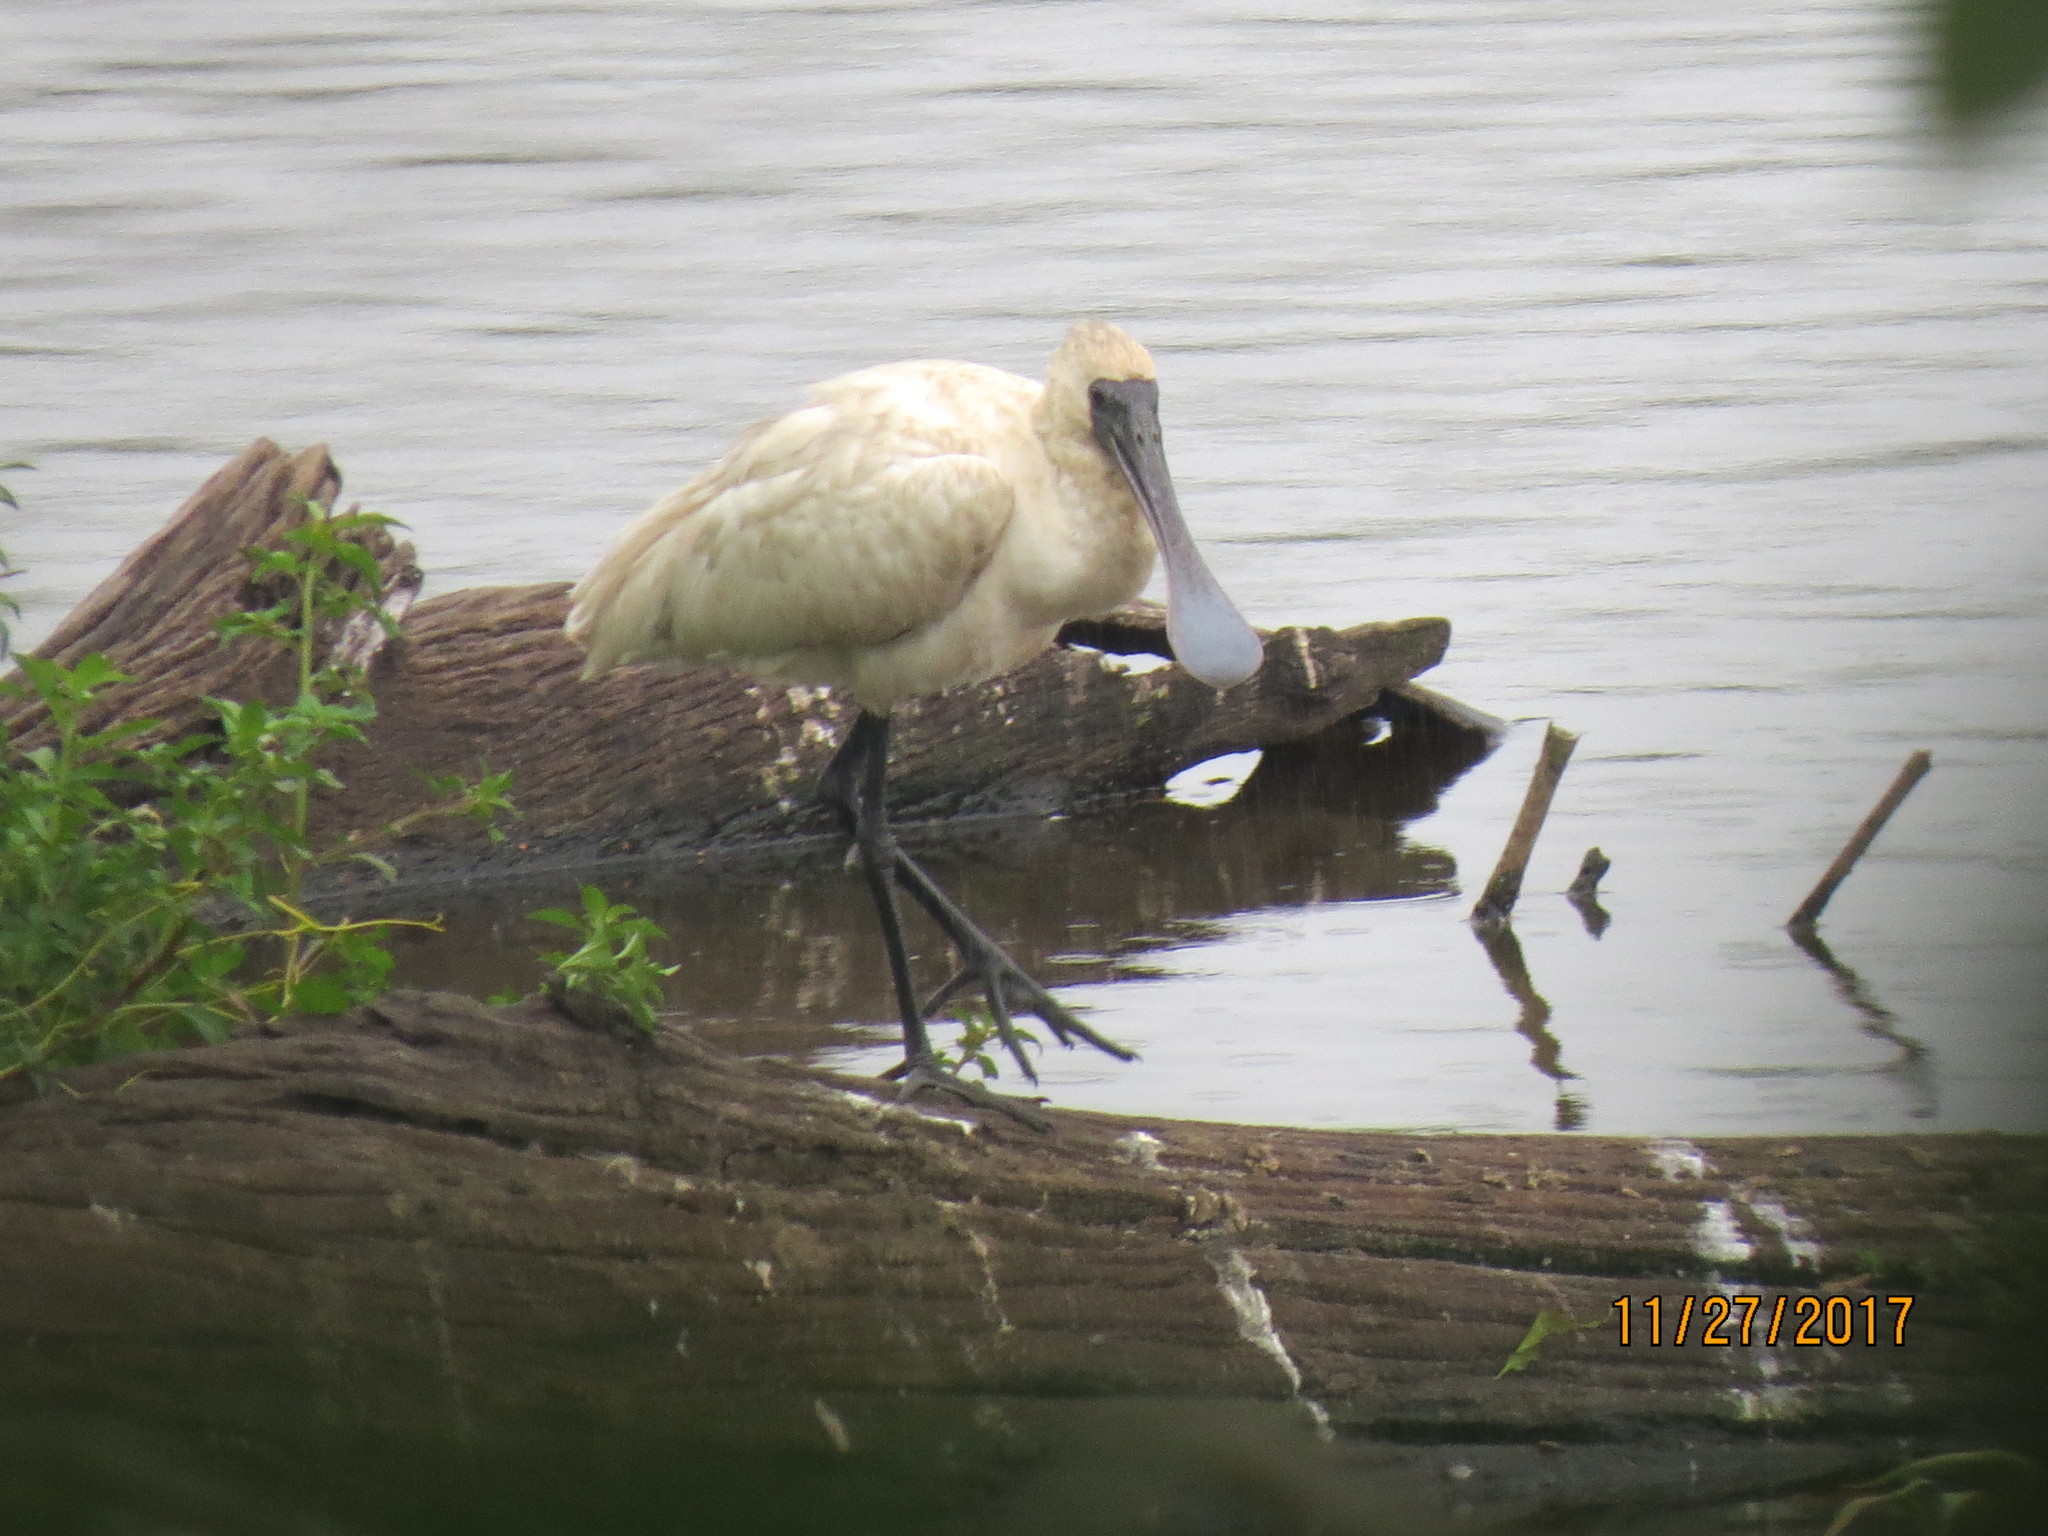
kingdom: Animalia
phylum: Chordata
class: Aves
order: Pelecaniformes
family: Threskiornithidae
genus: Platalea
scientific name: Platalea regia
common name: Royal spoonbill
